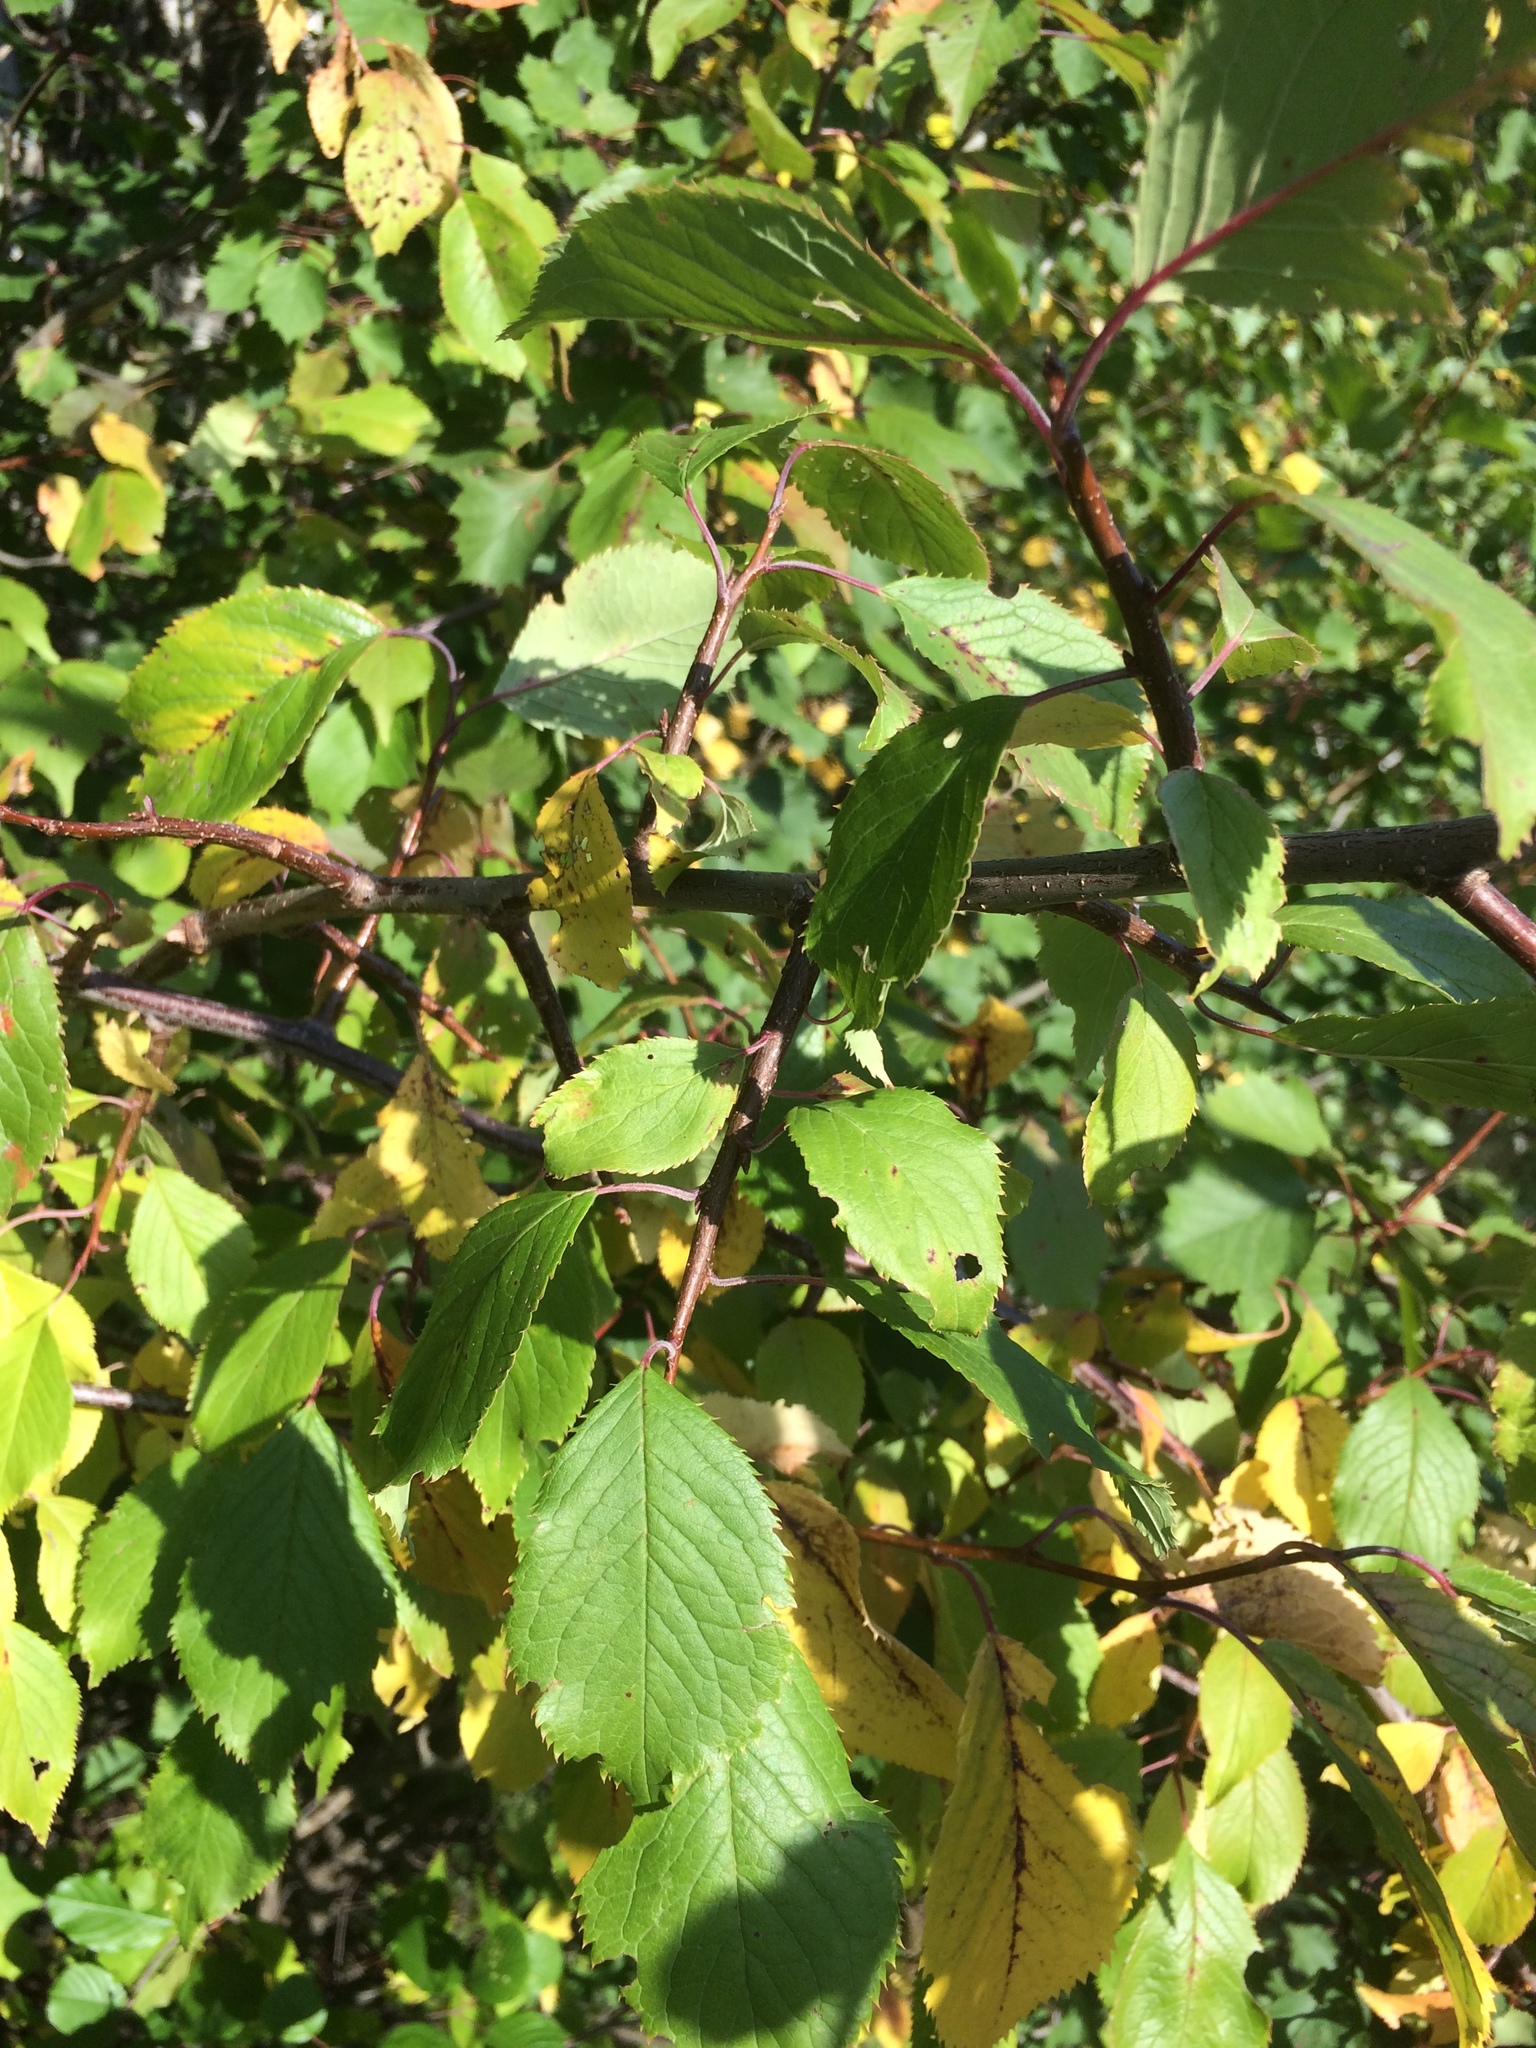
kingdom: Plantae
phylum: Tracheophyta
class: Magnoliopsida
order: Rosales
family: Rosaceae
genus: Prunus
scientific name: Prunus nigra
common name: Black plum
